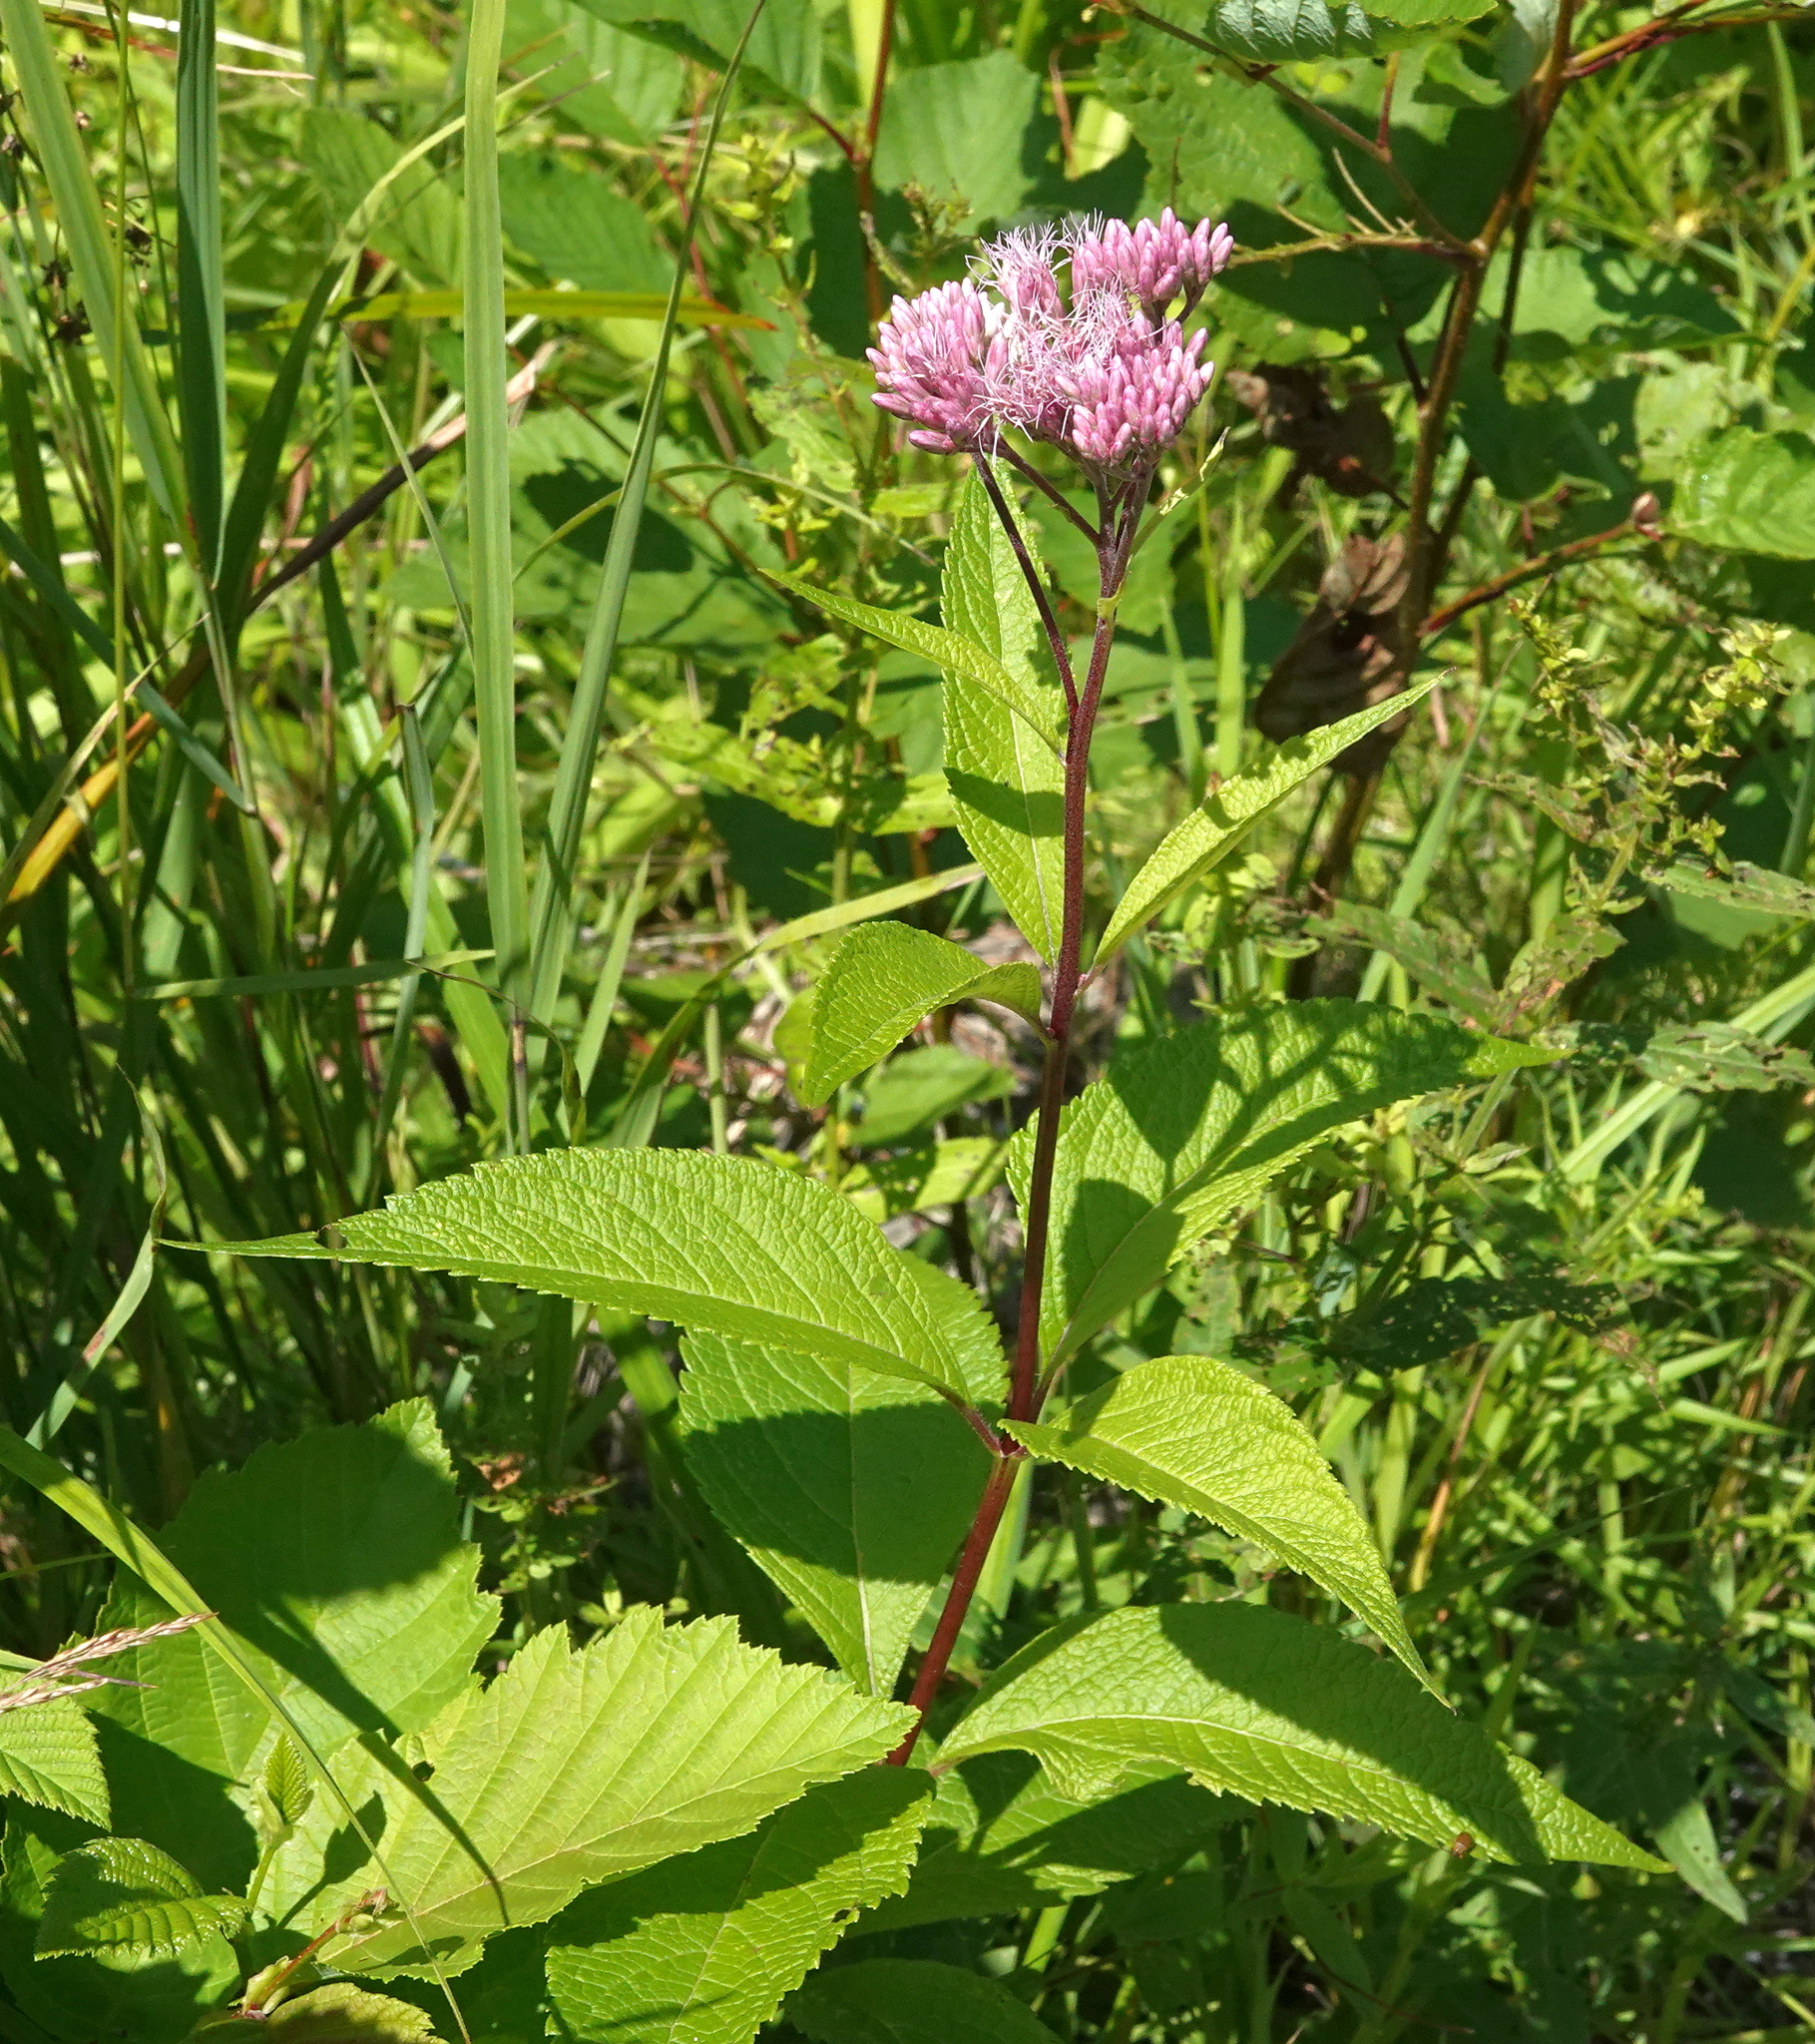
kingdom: Plantae
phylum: Tracheophyta
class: Magnoliopsida
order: Asterales
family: Asteraceae
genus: Eutrochium
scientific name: Eutrochium maculatum
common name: Spotted joe pye weed
